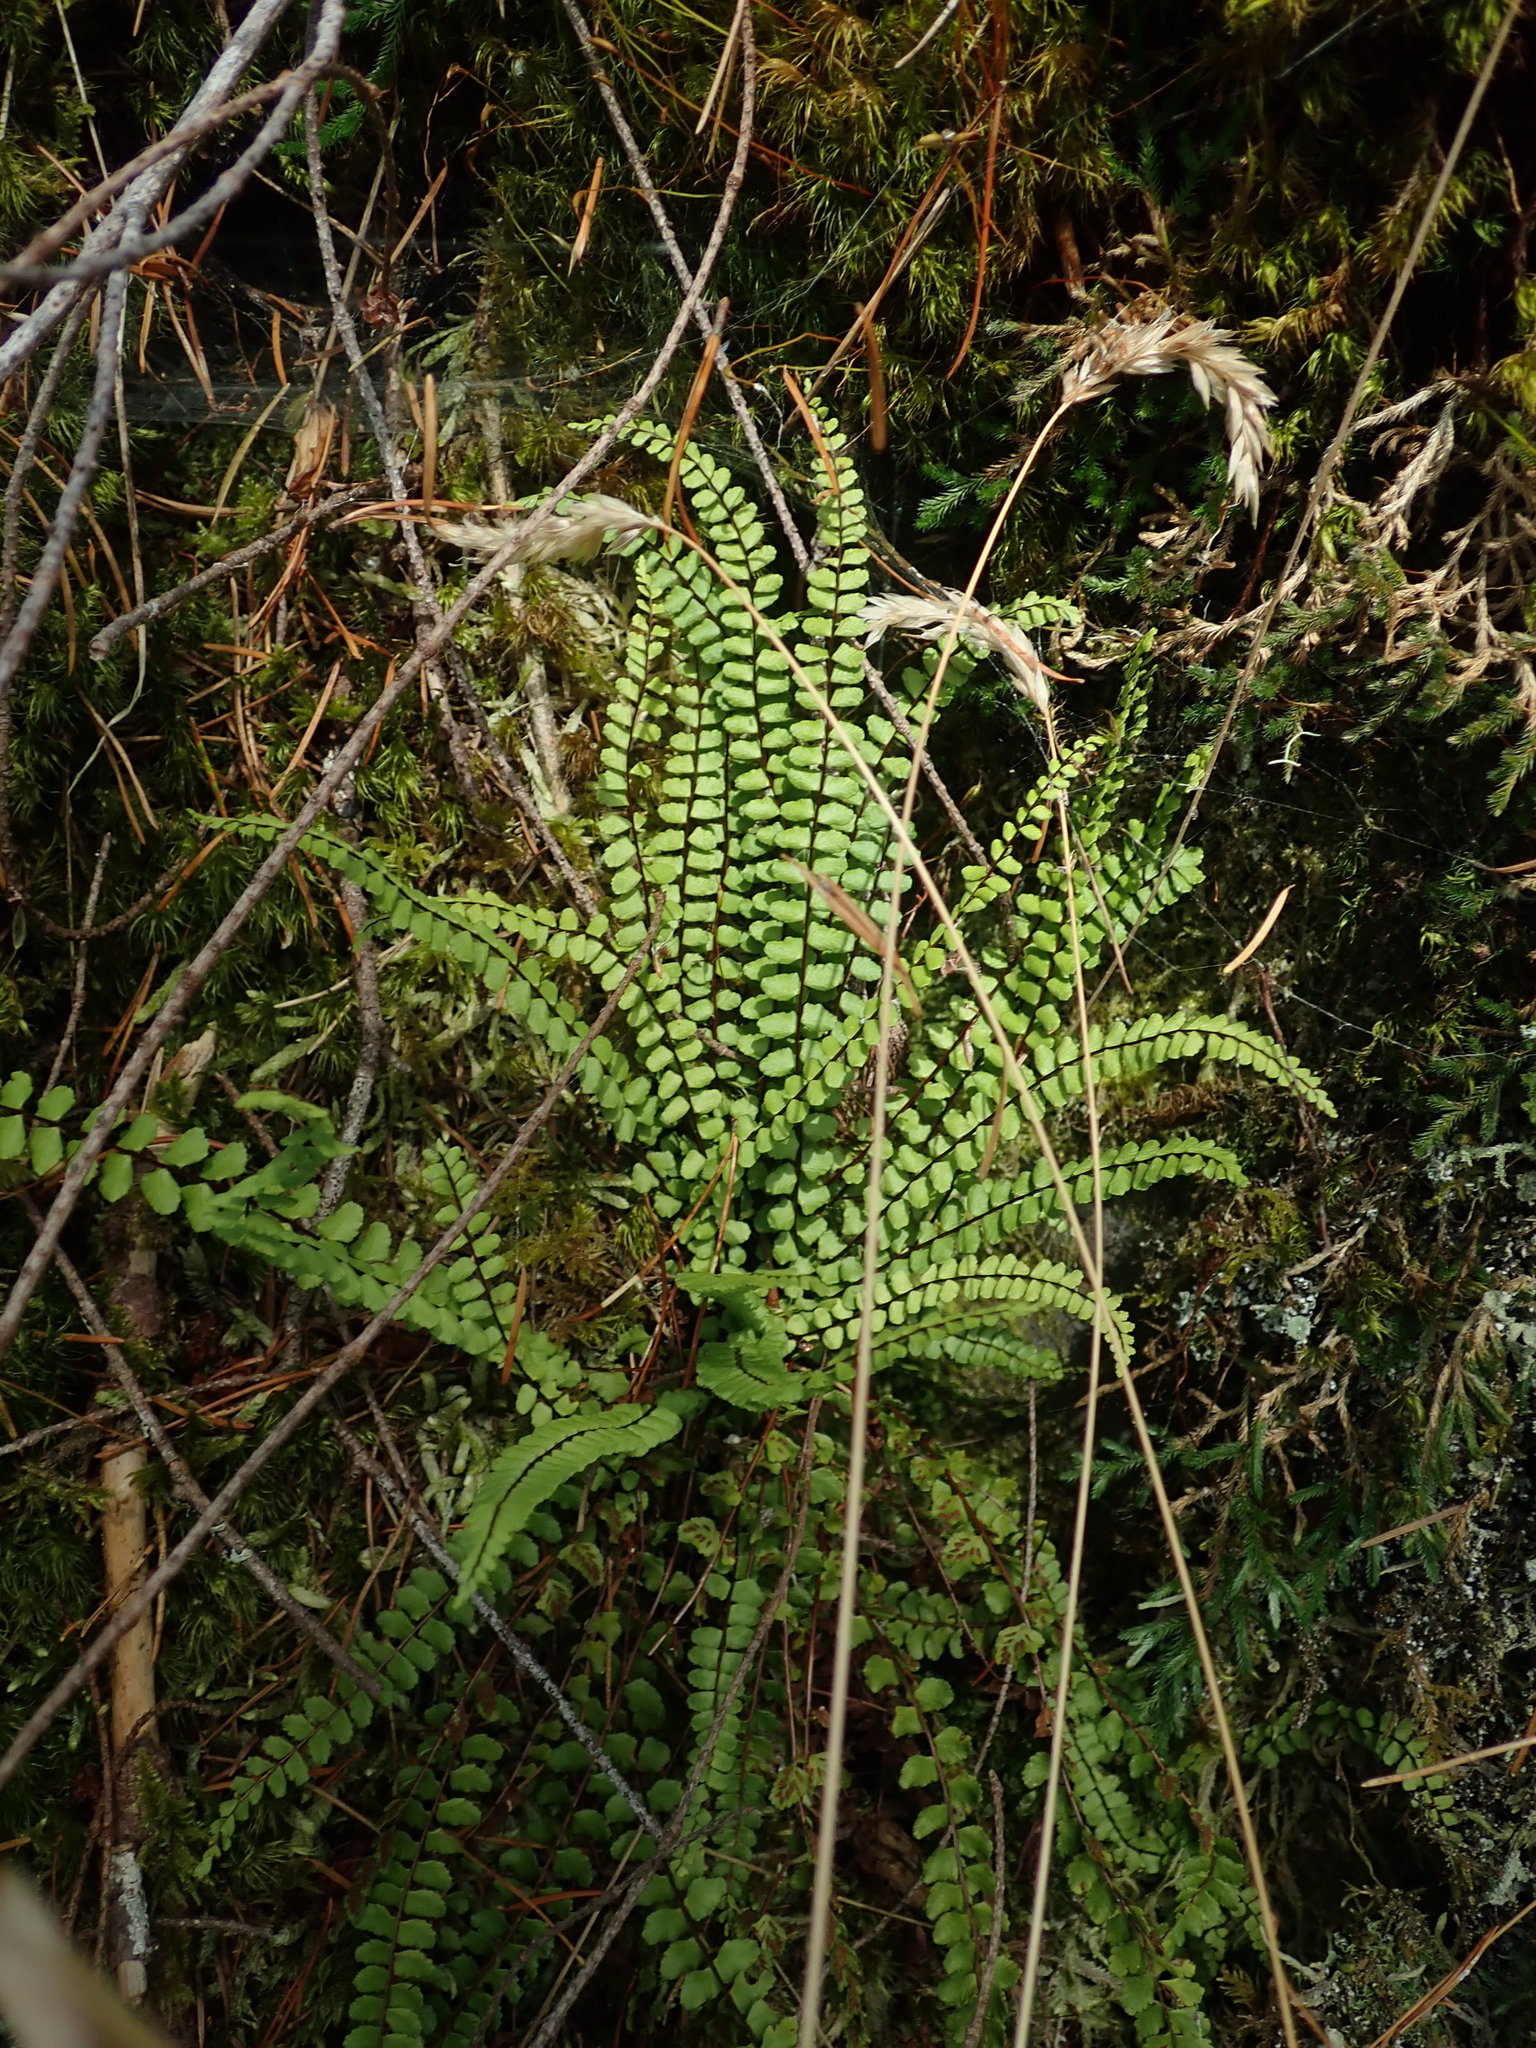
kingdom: Plantae
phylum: Tracheophyta
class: Polypodiopsida
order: Polypodiales
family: Aspleniaceae
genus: Asplenium
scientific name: Asplenium trichomanes
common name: Maidenhair spleenwort
